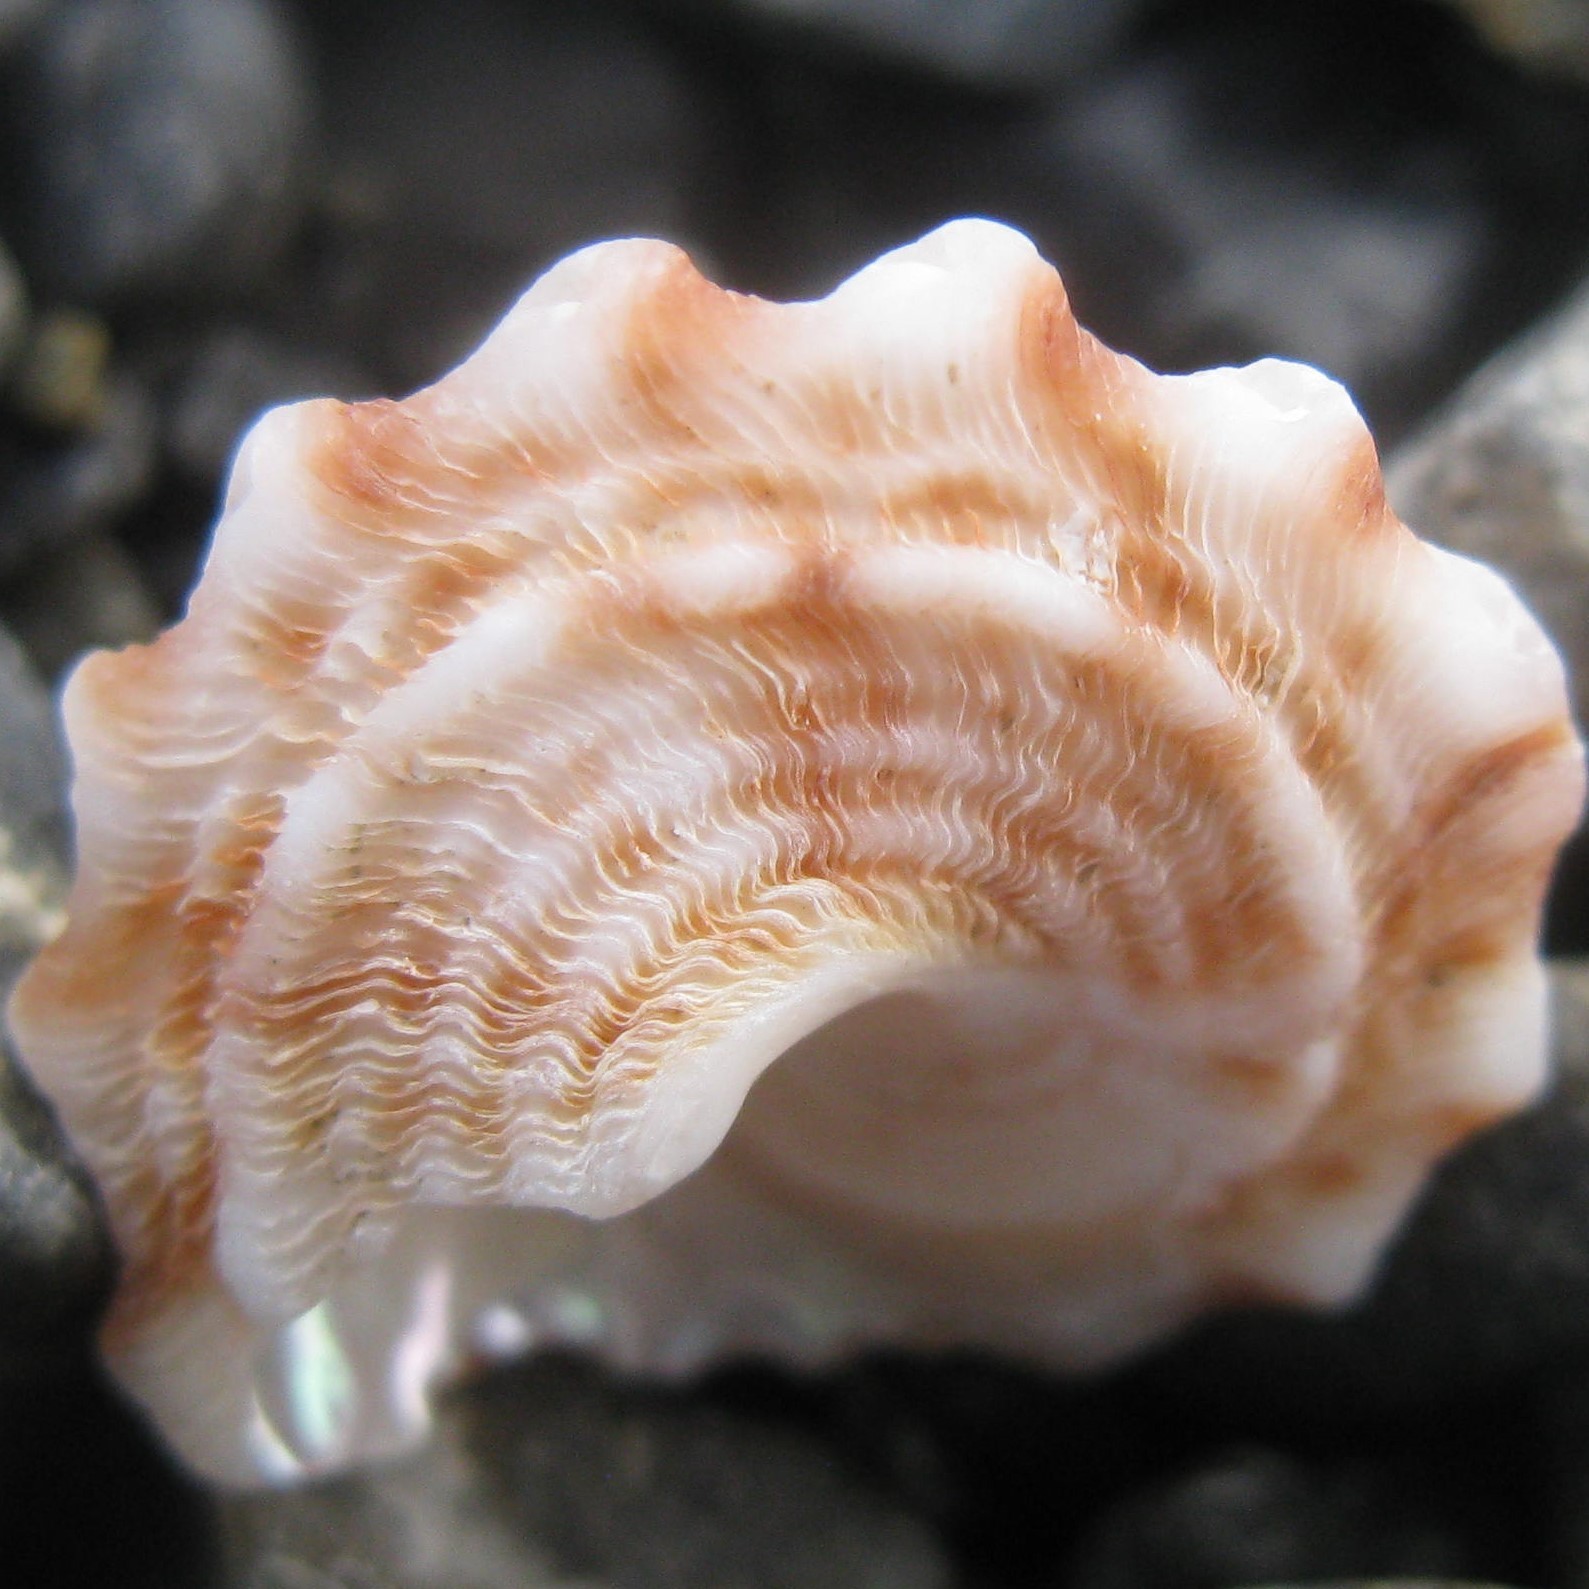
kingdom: Animalia
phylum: Mollusca
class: Gastropoda
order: Trochida
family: Turbinidae
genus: Cookia
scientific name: Cookia sulcata
